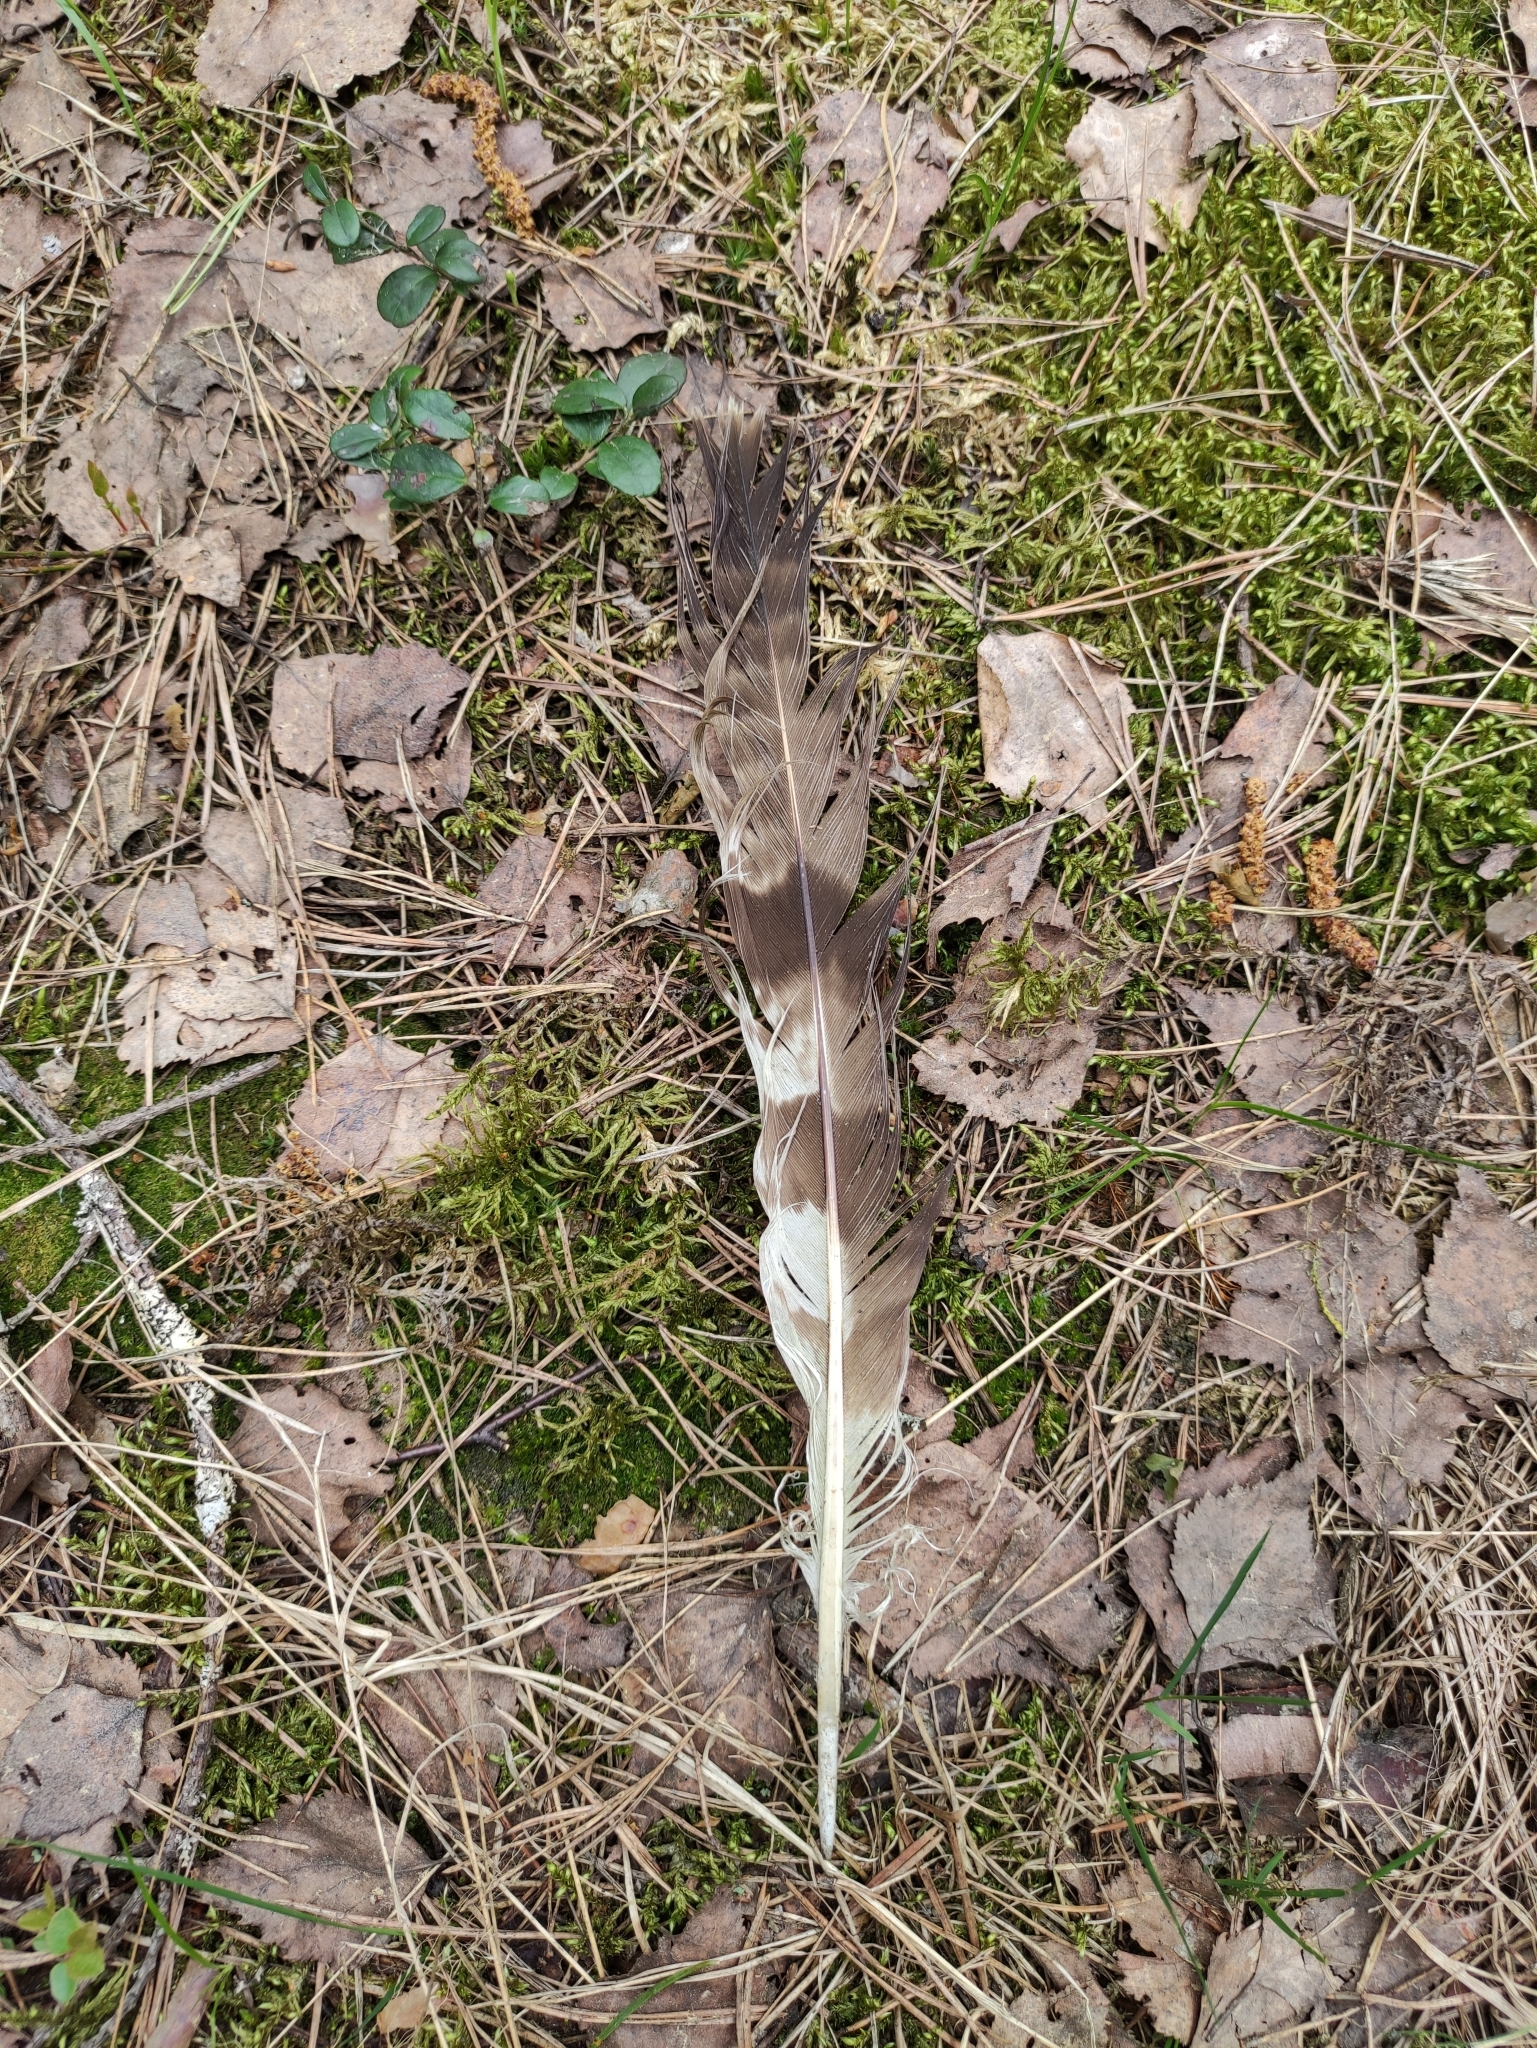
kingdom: Animalia
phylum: Chordata
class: Aves
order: Accipitriformes
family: Accipitridae
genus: Pernis
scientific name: Pernis apivorus
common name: European honey buzzard
